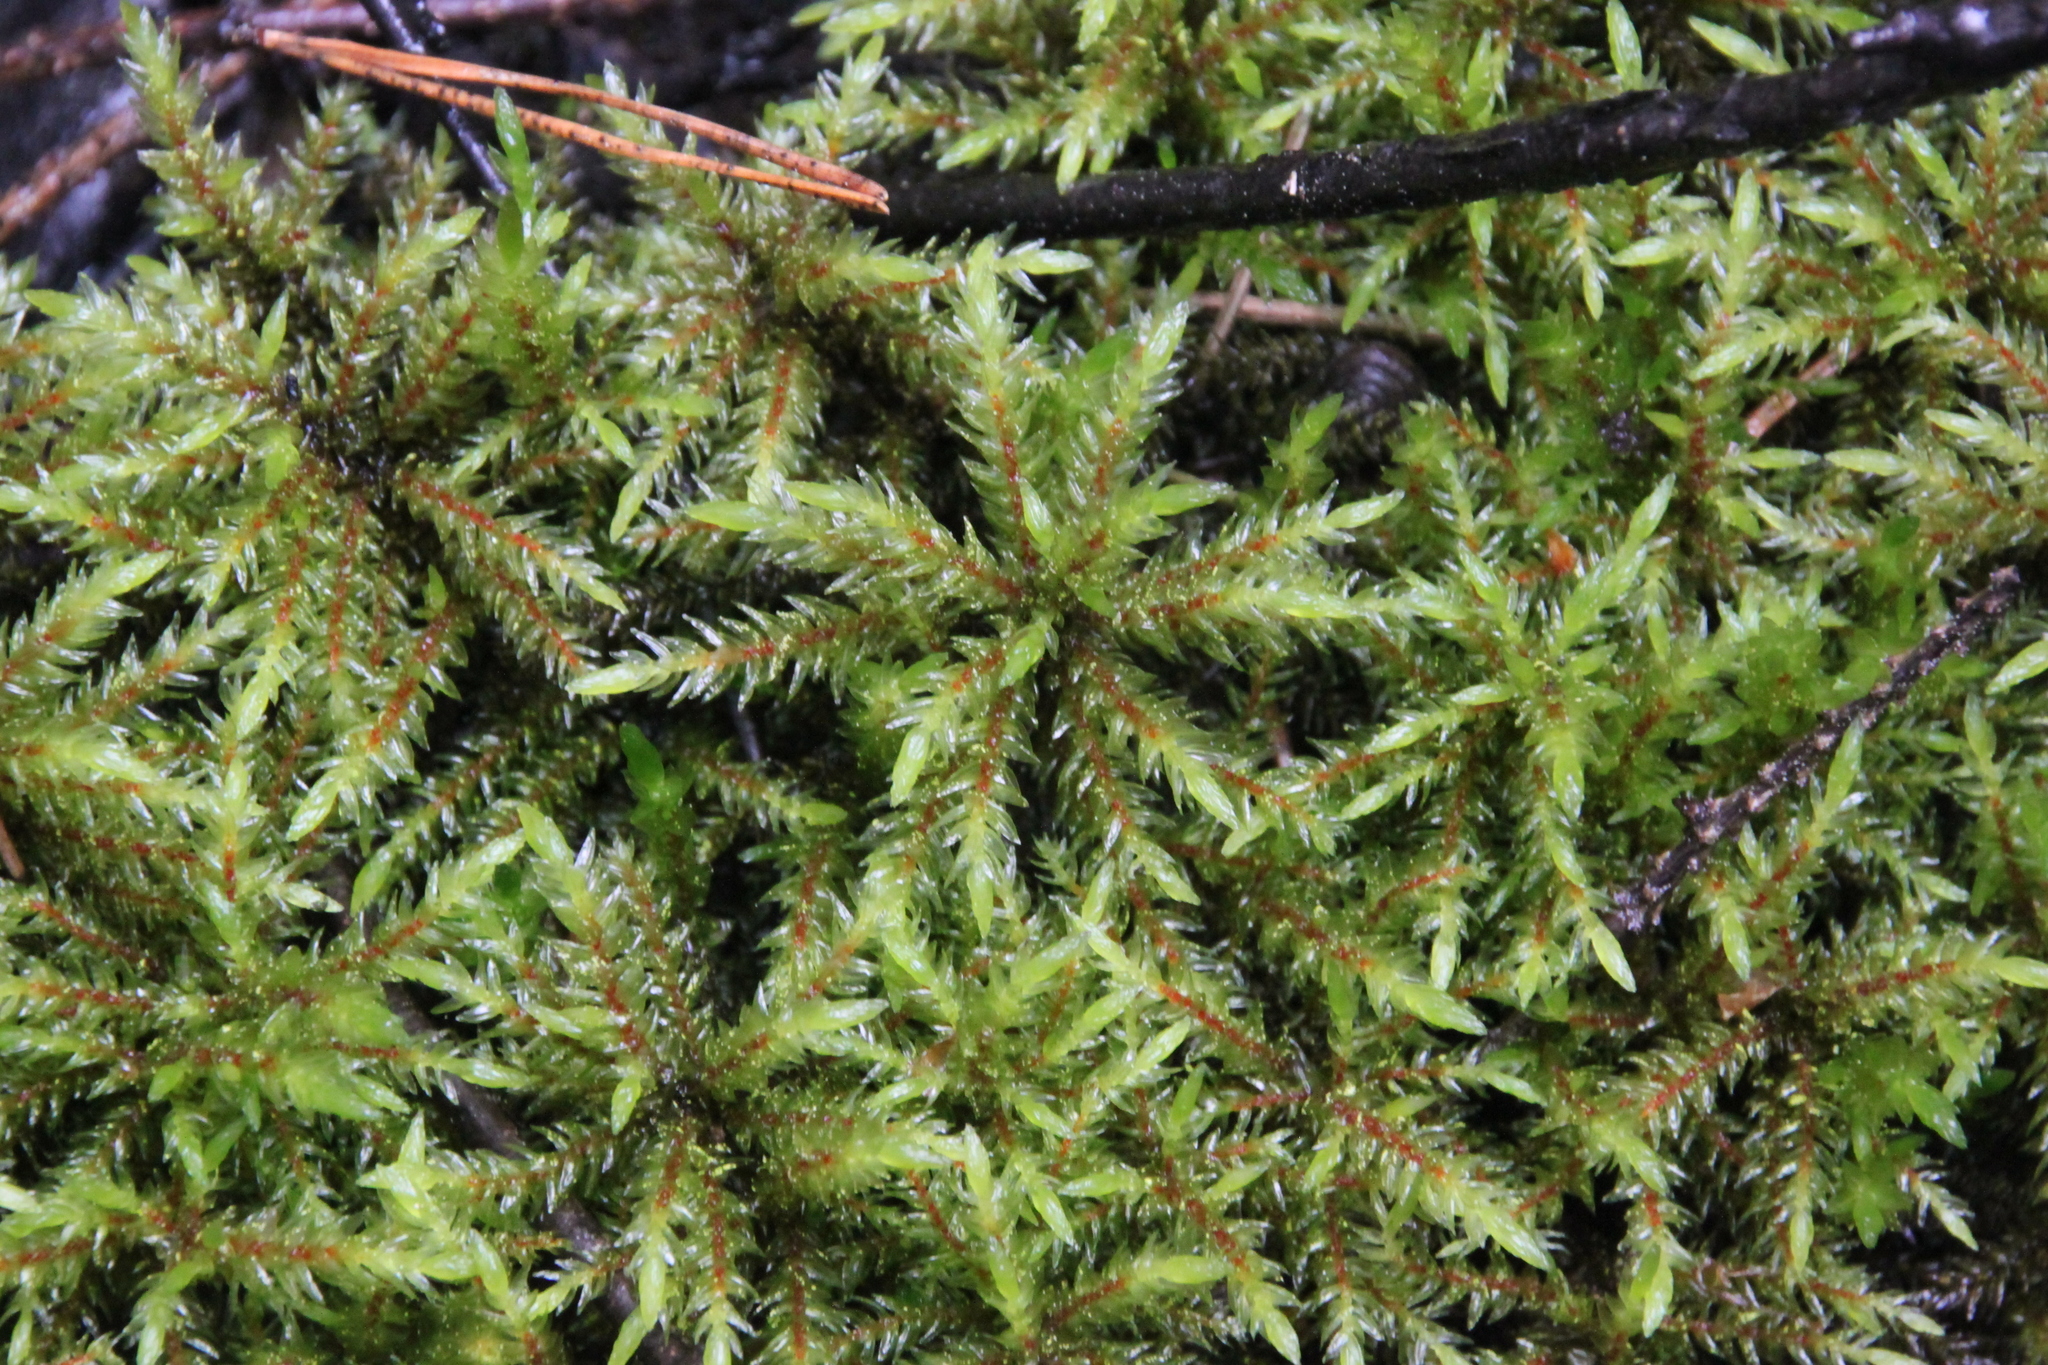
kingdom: Plantae
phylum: Bryophyta
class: Bryopsida
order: Hypnales
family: Climaciaceae
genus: Climacium
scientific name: Climacium dendroides
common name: Northern tree moss
